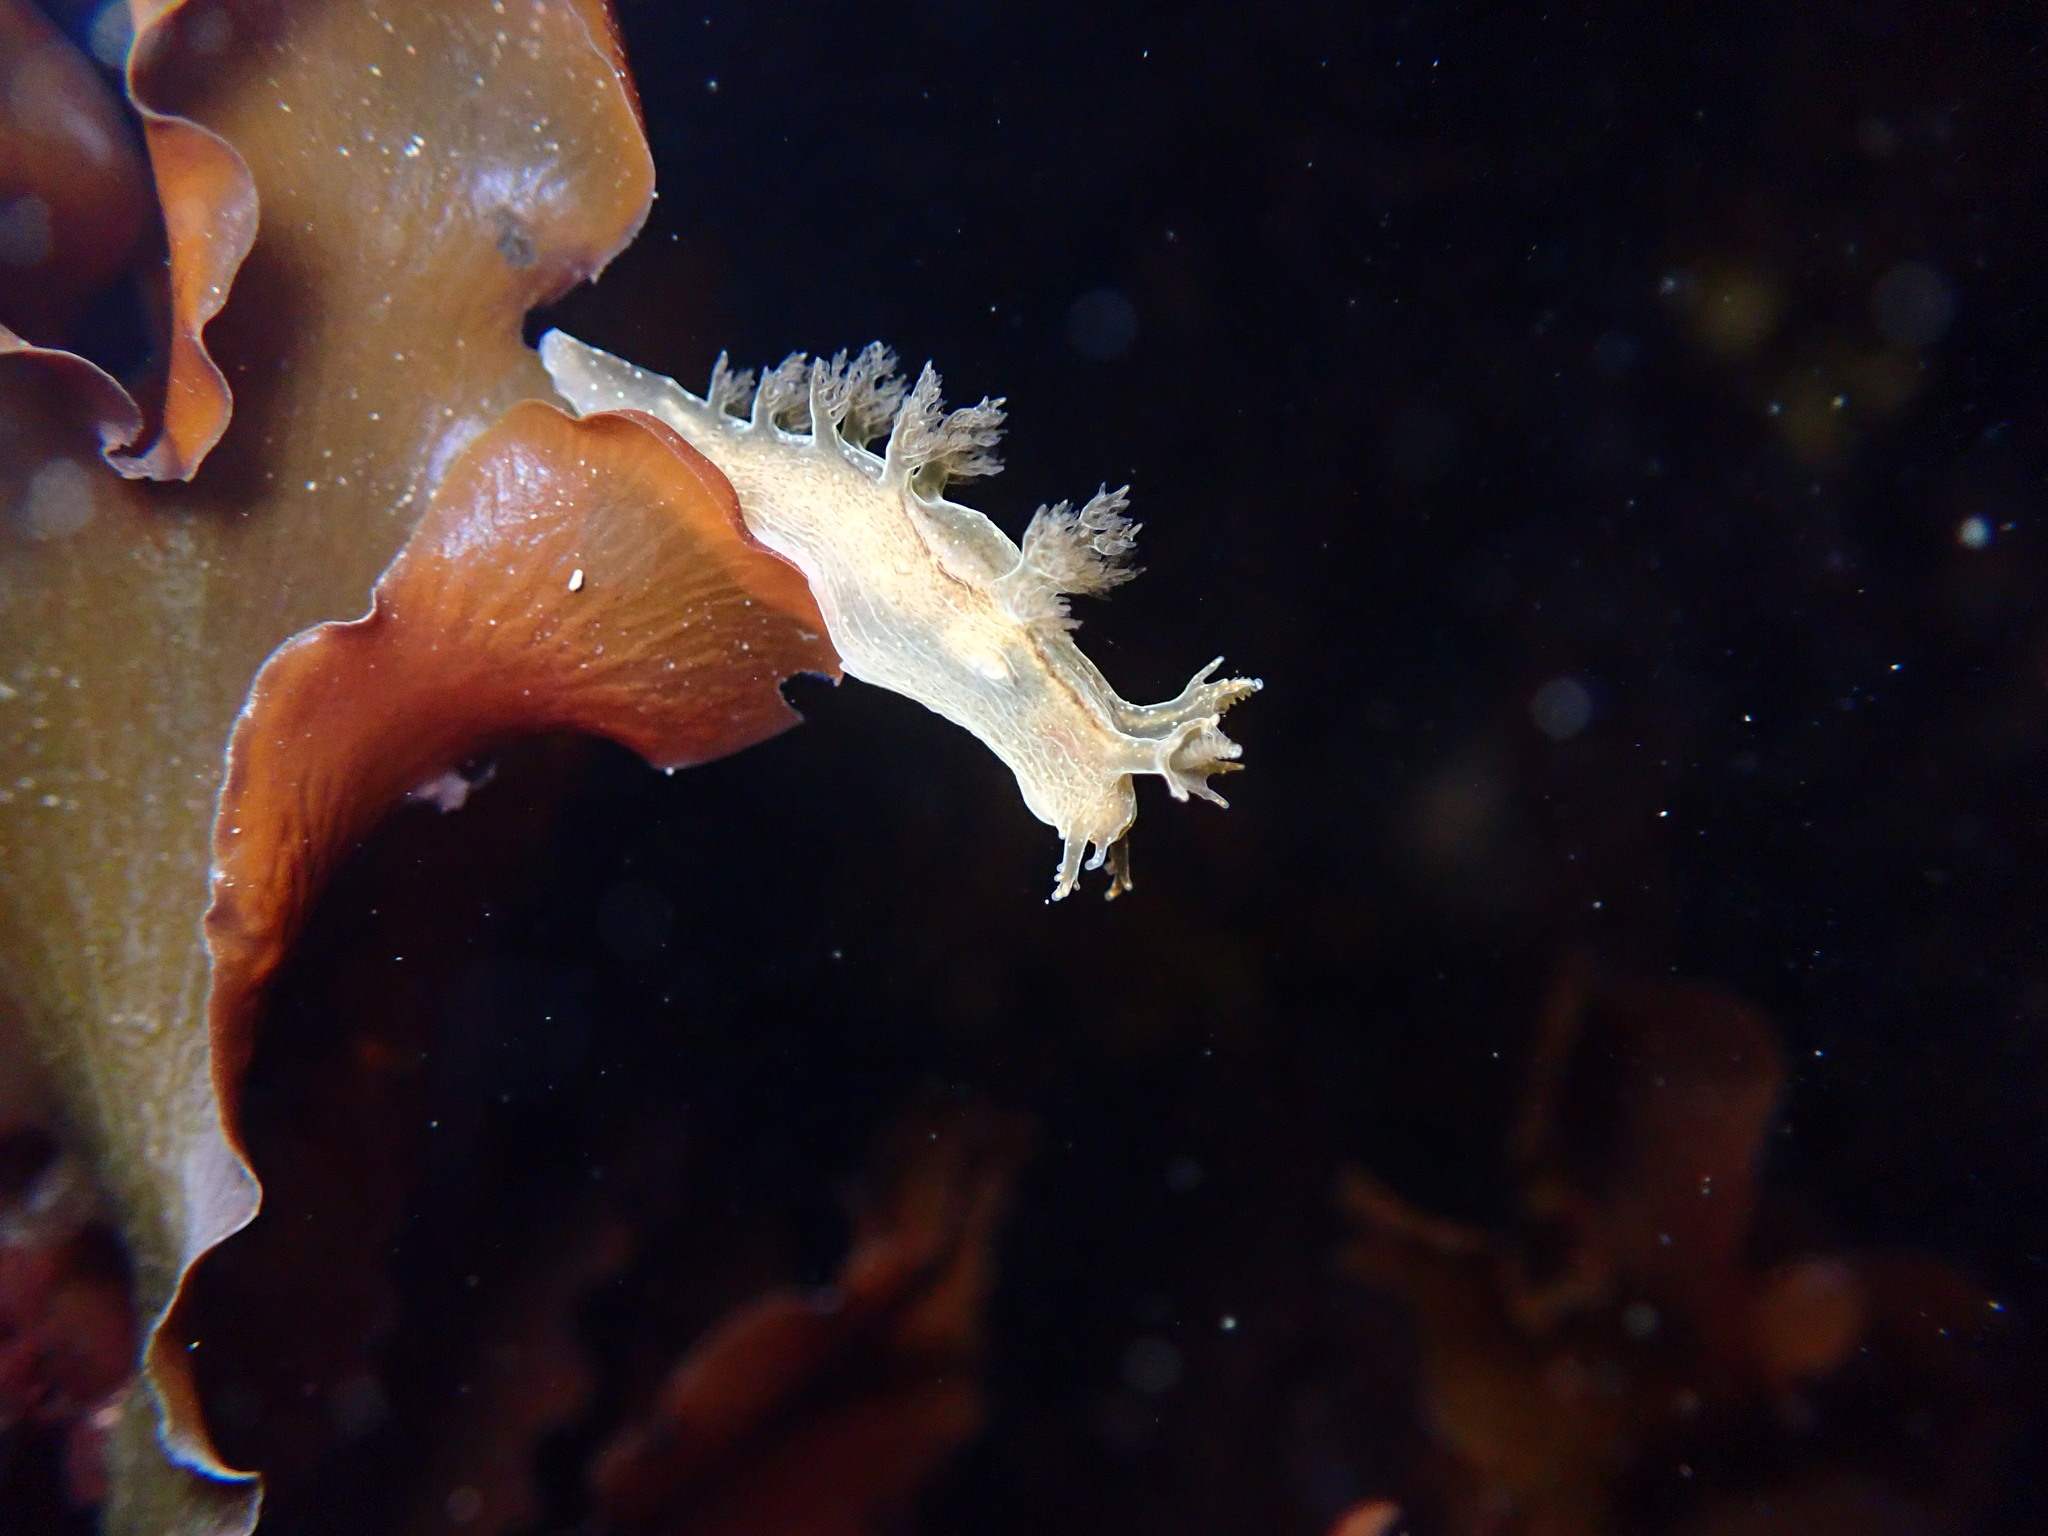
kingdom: Animalia
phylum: Mollusca
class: Gastropoda
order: Nudibranchia
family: Dendronotidae
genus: Dendronotus
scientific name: Dendronotus subramosus
